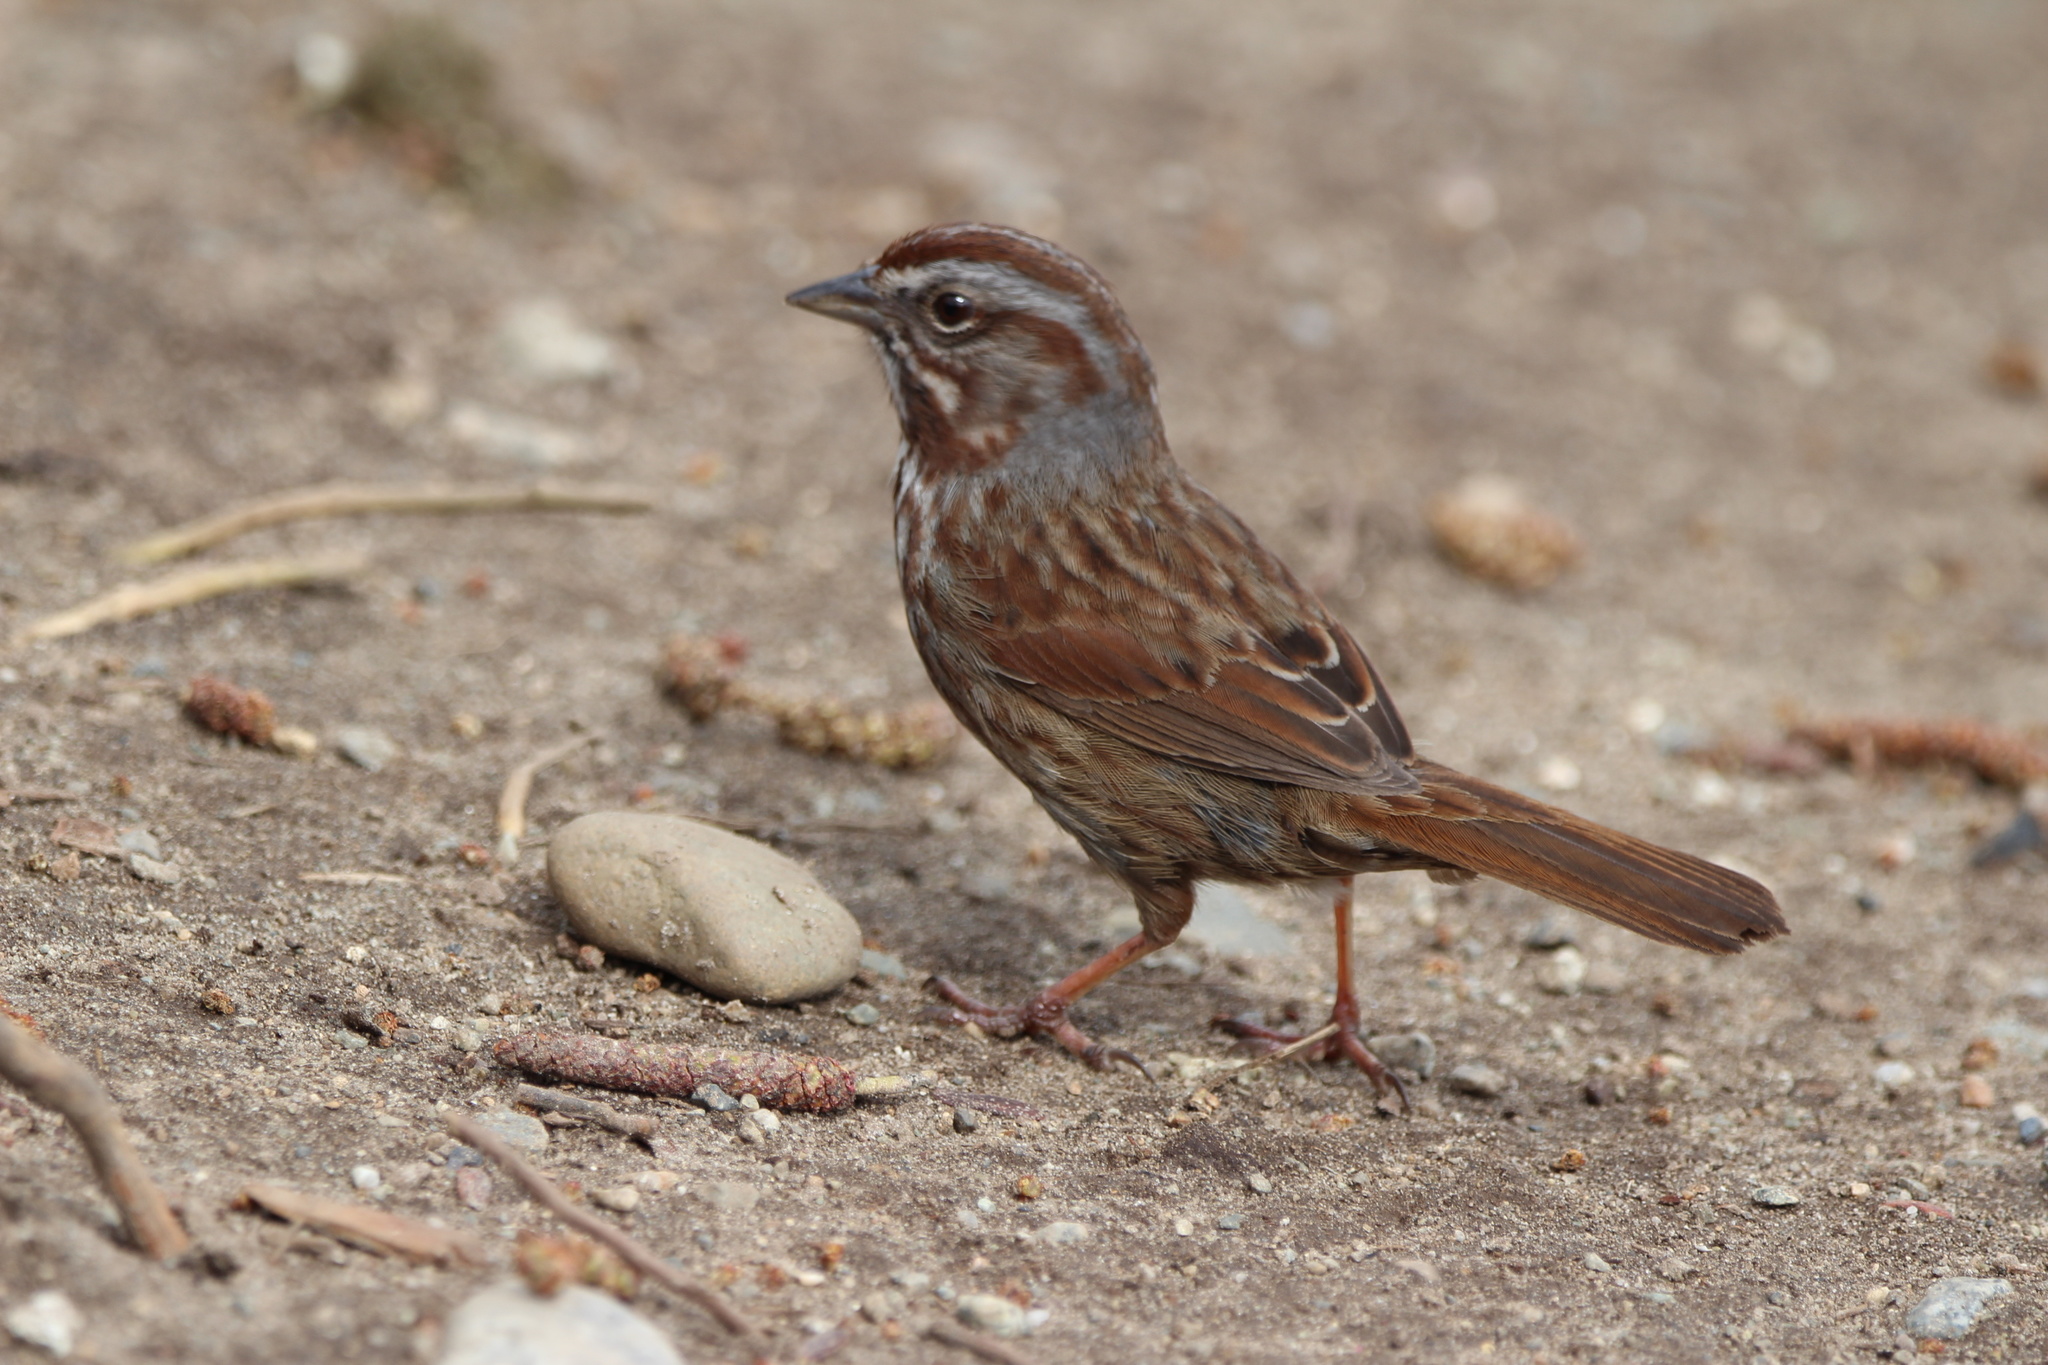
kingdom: Animalia
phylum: Chordata
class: Aves
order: Passeriformes
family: Passerellidae
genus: Melospiza
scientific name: Melospiza melodia
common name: Song sparrow
